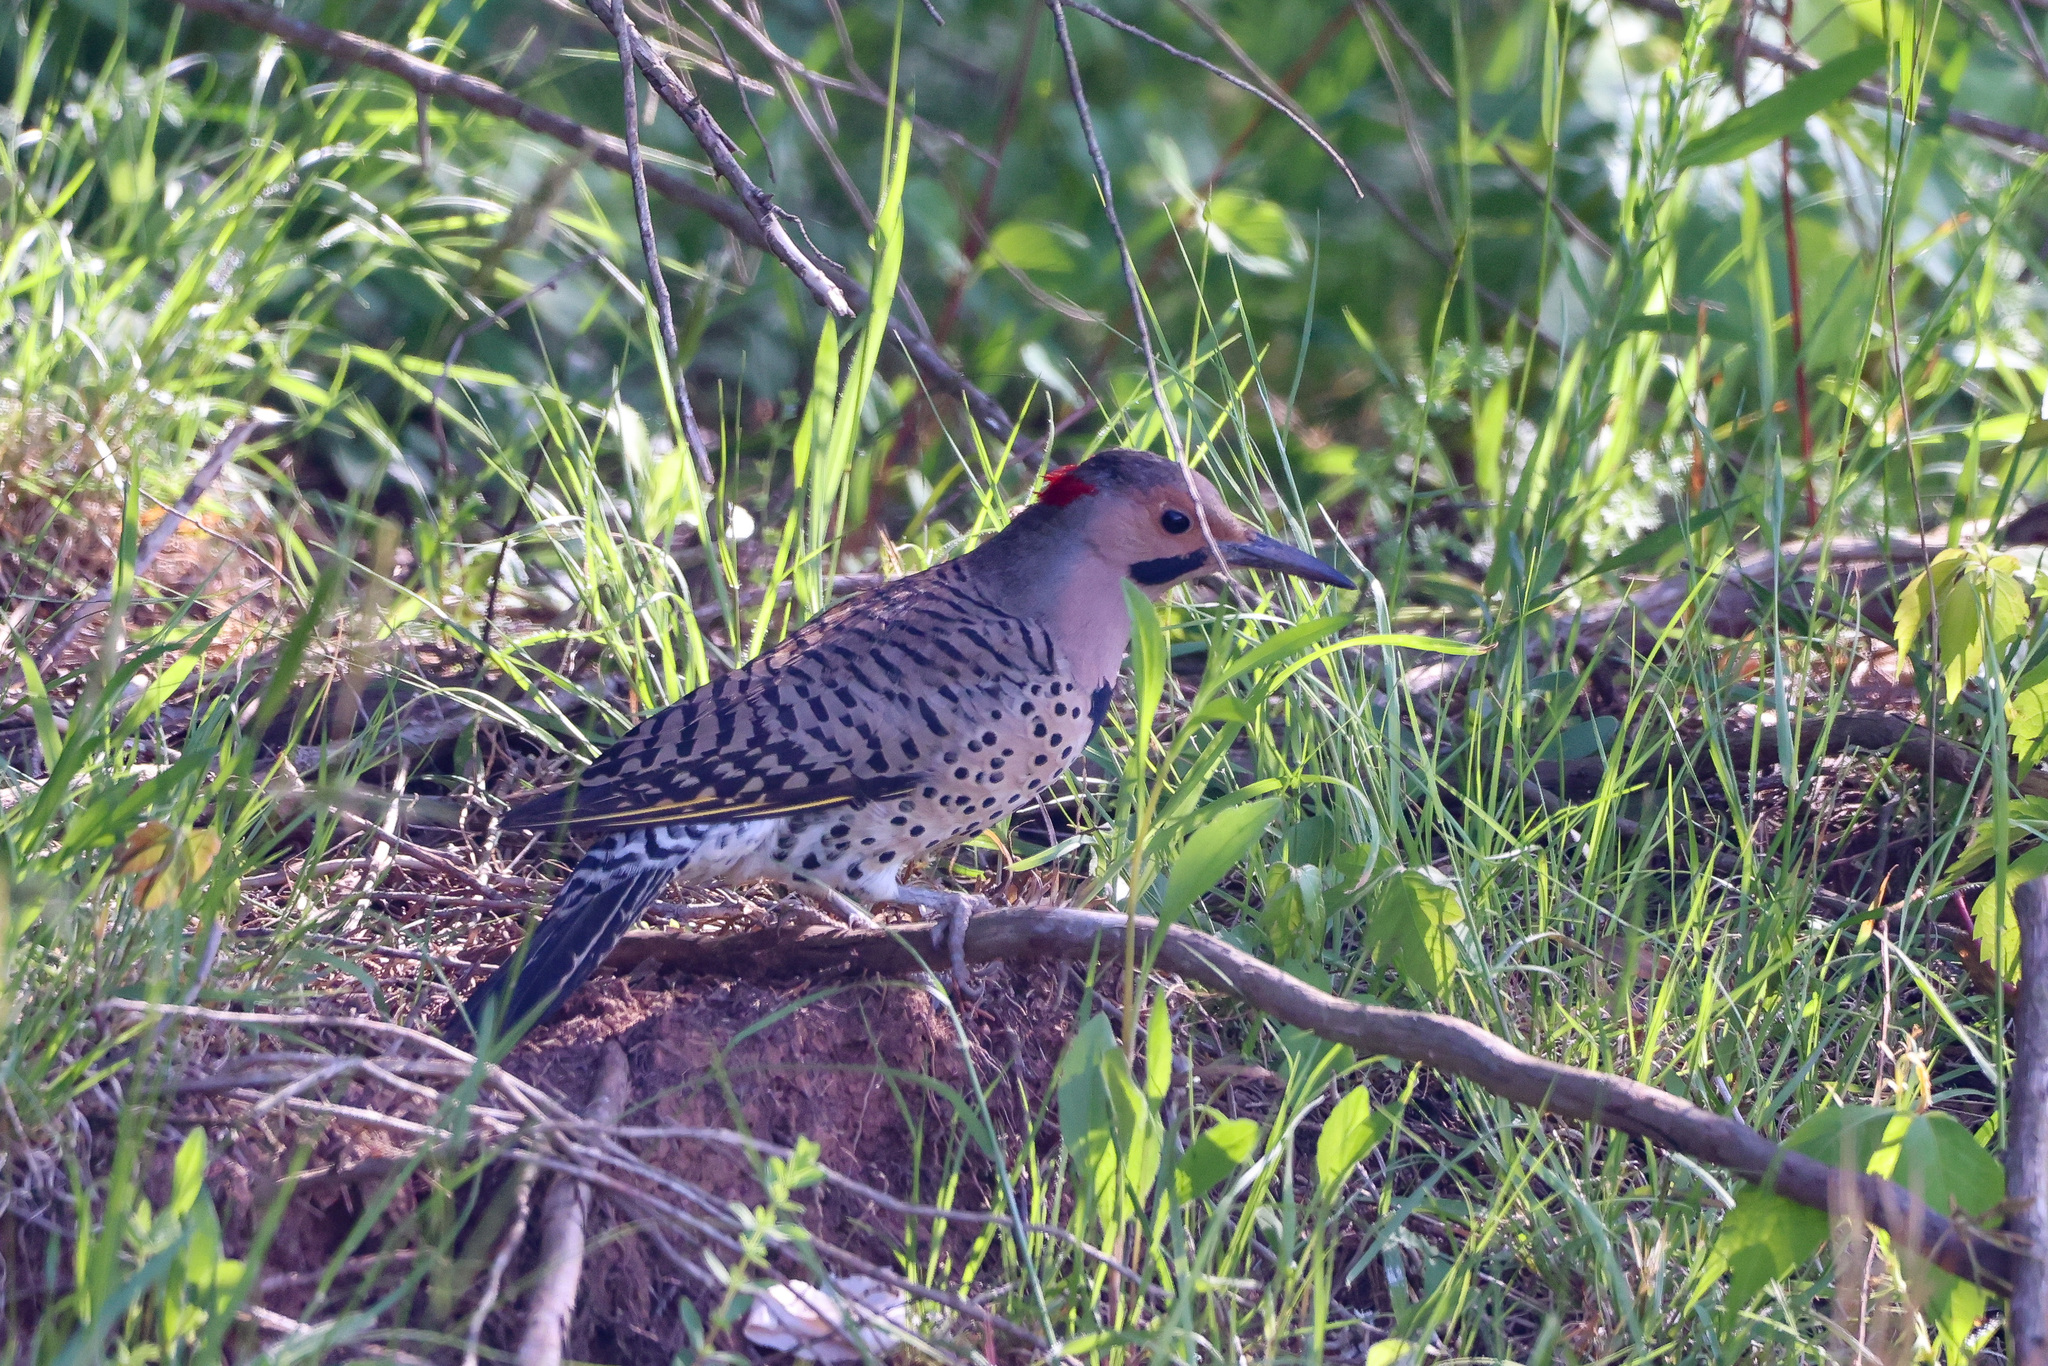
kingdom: Animalia
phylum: Chordata
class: Aves
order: Piciformes
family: Picidae
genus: Colaptes
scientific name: Colaptes auratus
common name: Northern flicker
